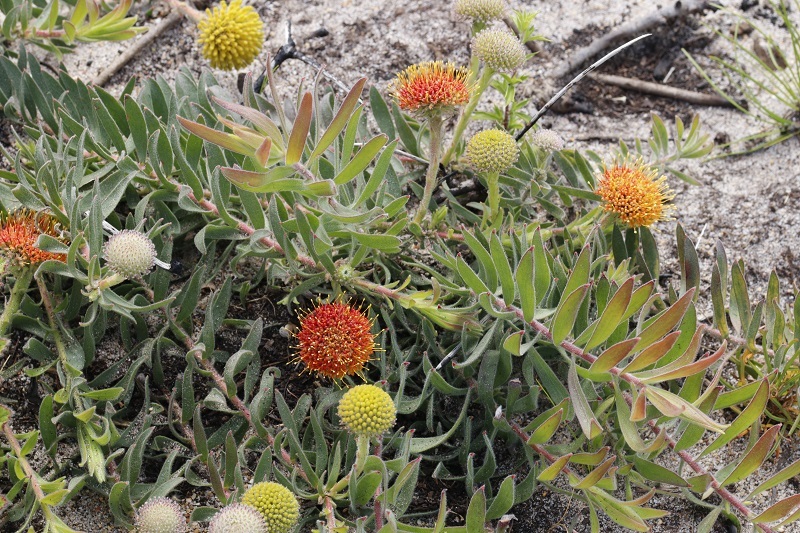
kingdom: Plantae
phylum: Tracheophyta
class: Magnoliopsida
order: Proteales
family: Proteaceae
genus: Leucospermum
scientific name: Leucospermum prostratum
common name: Yellow-trailing pincushion
